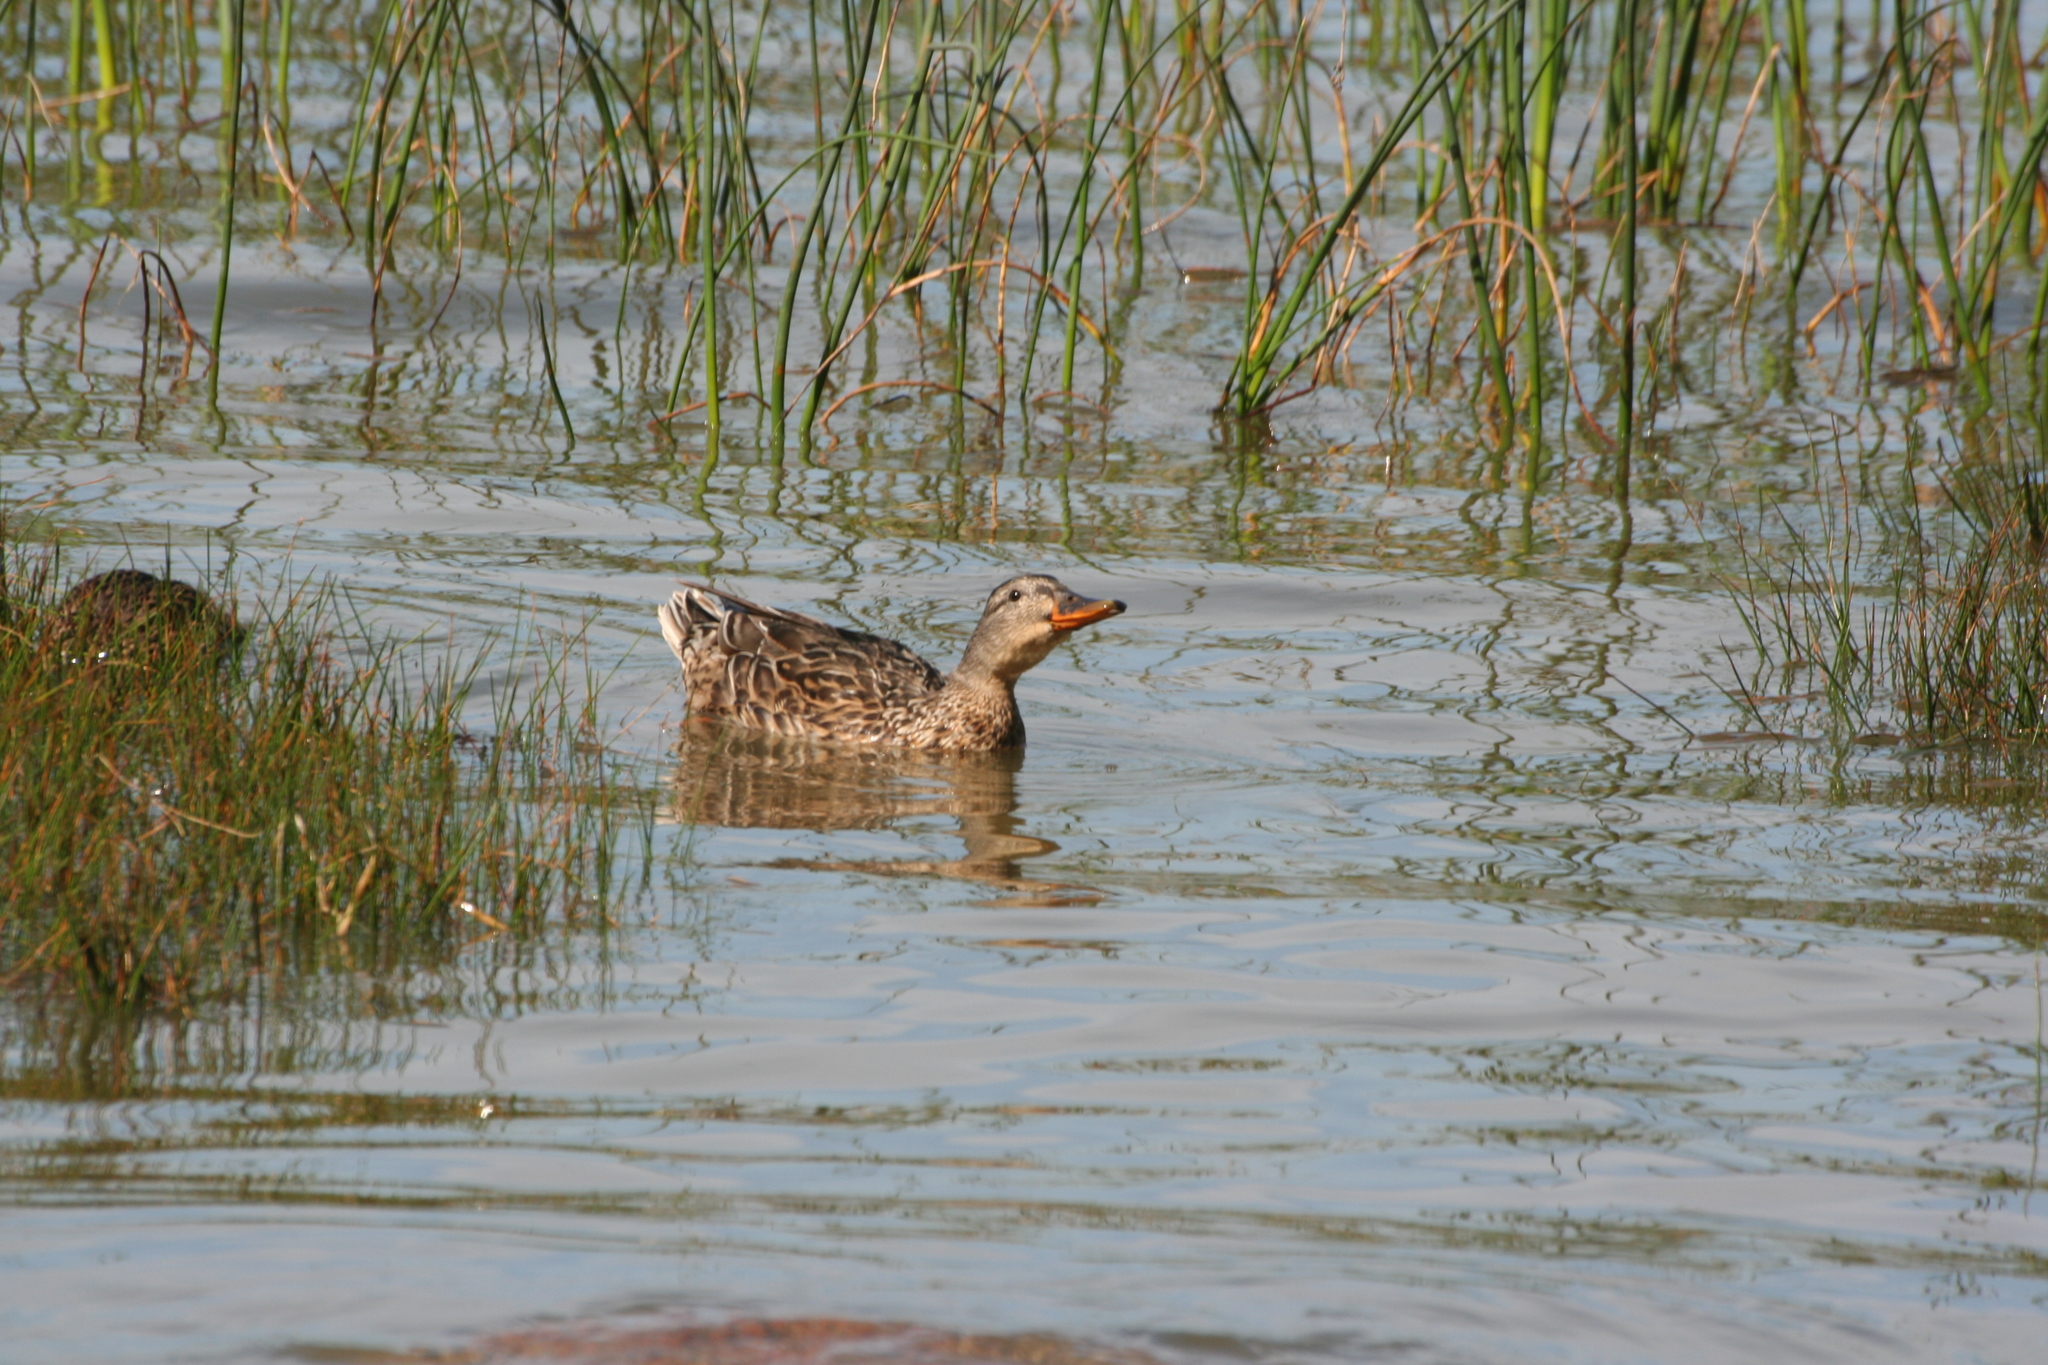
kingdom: Animalia
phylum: Chordata
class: Aves
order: Anseriformes
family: Anatidae
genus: Anas
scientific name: Anas platyrhynchos
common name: Mallard
